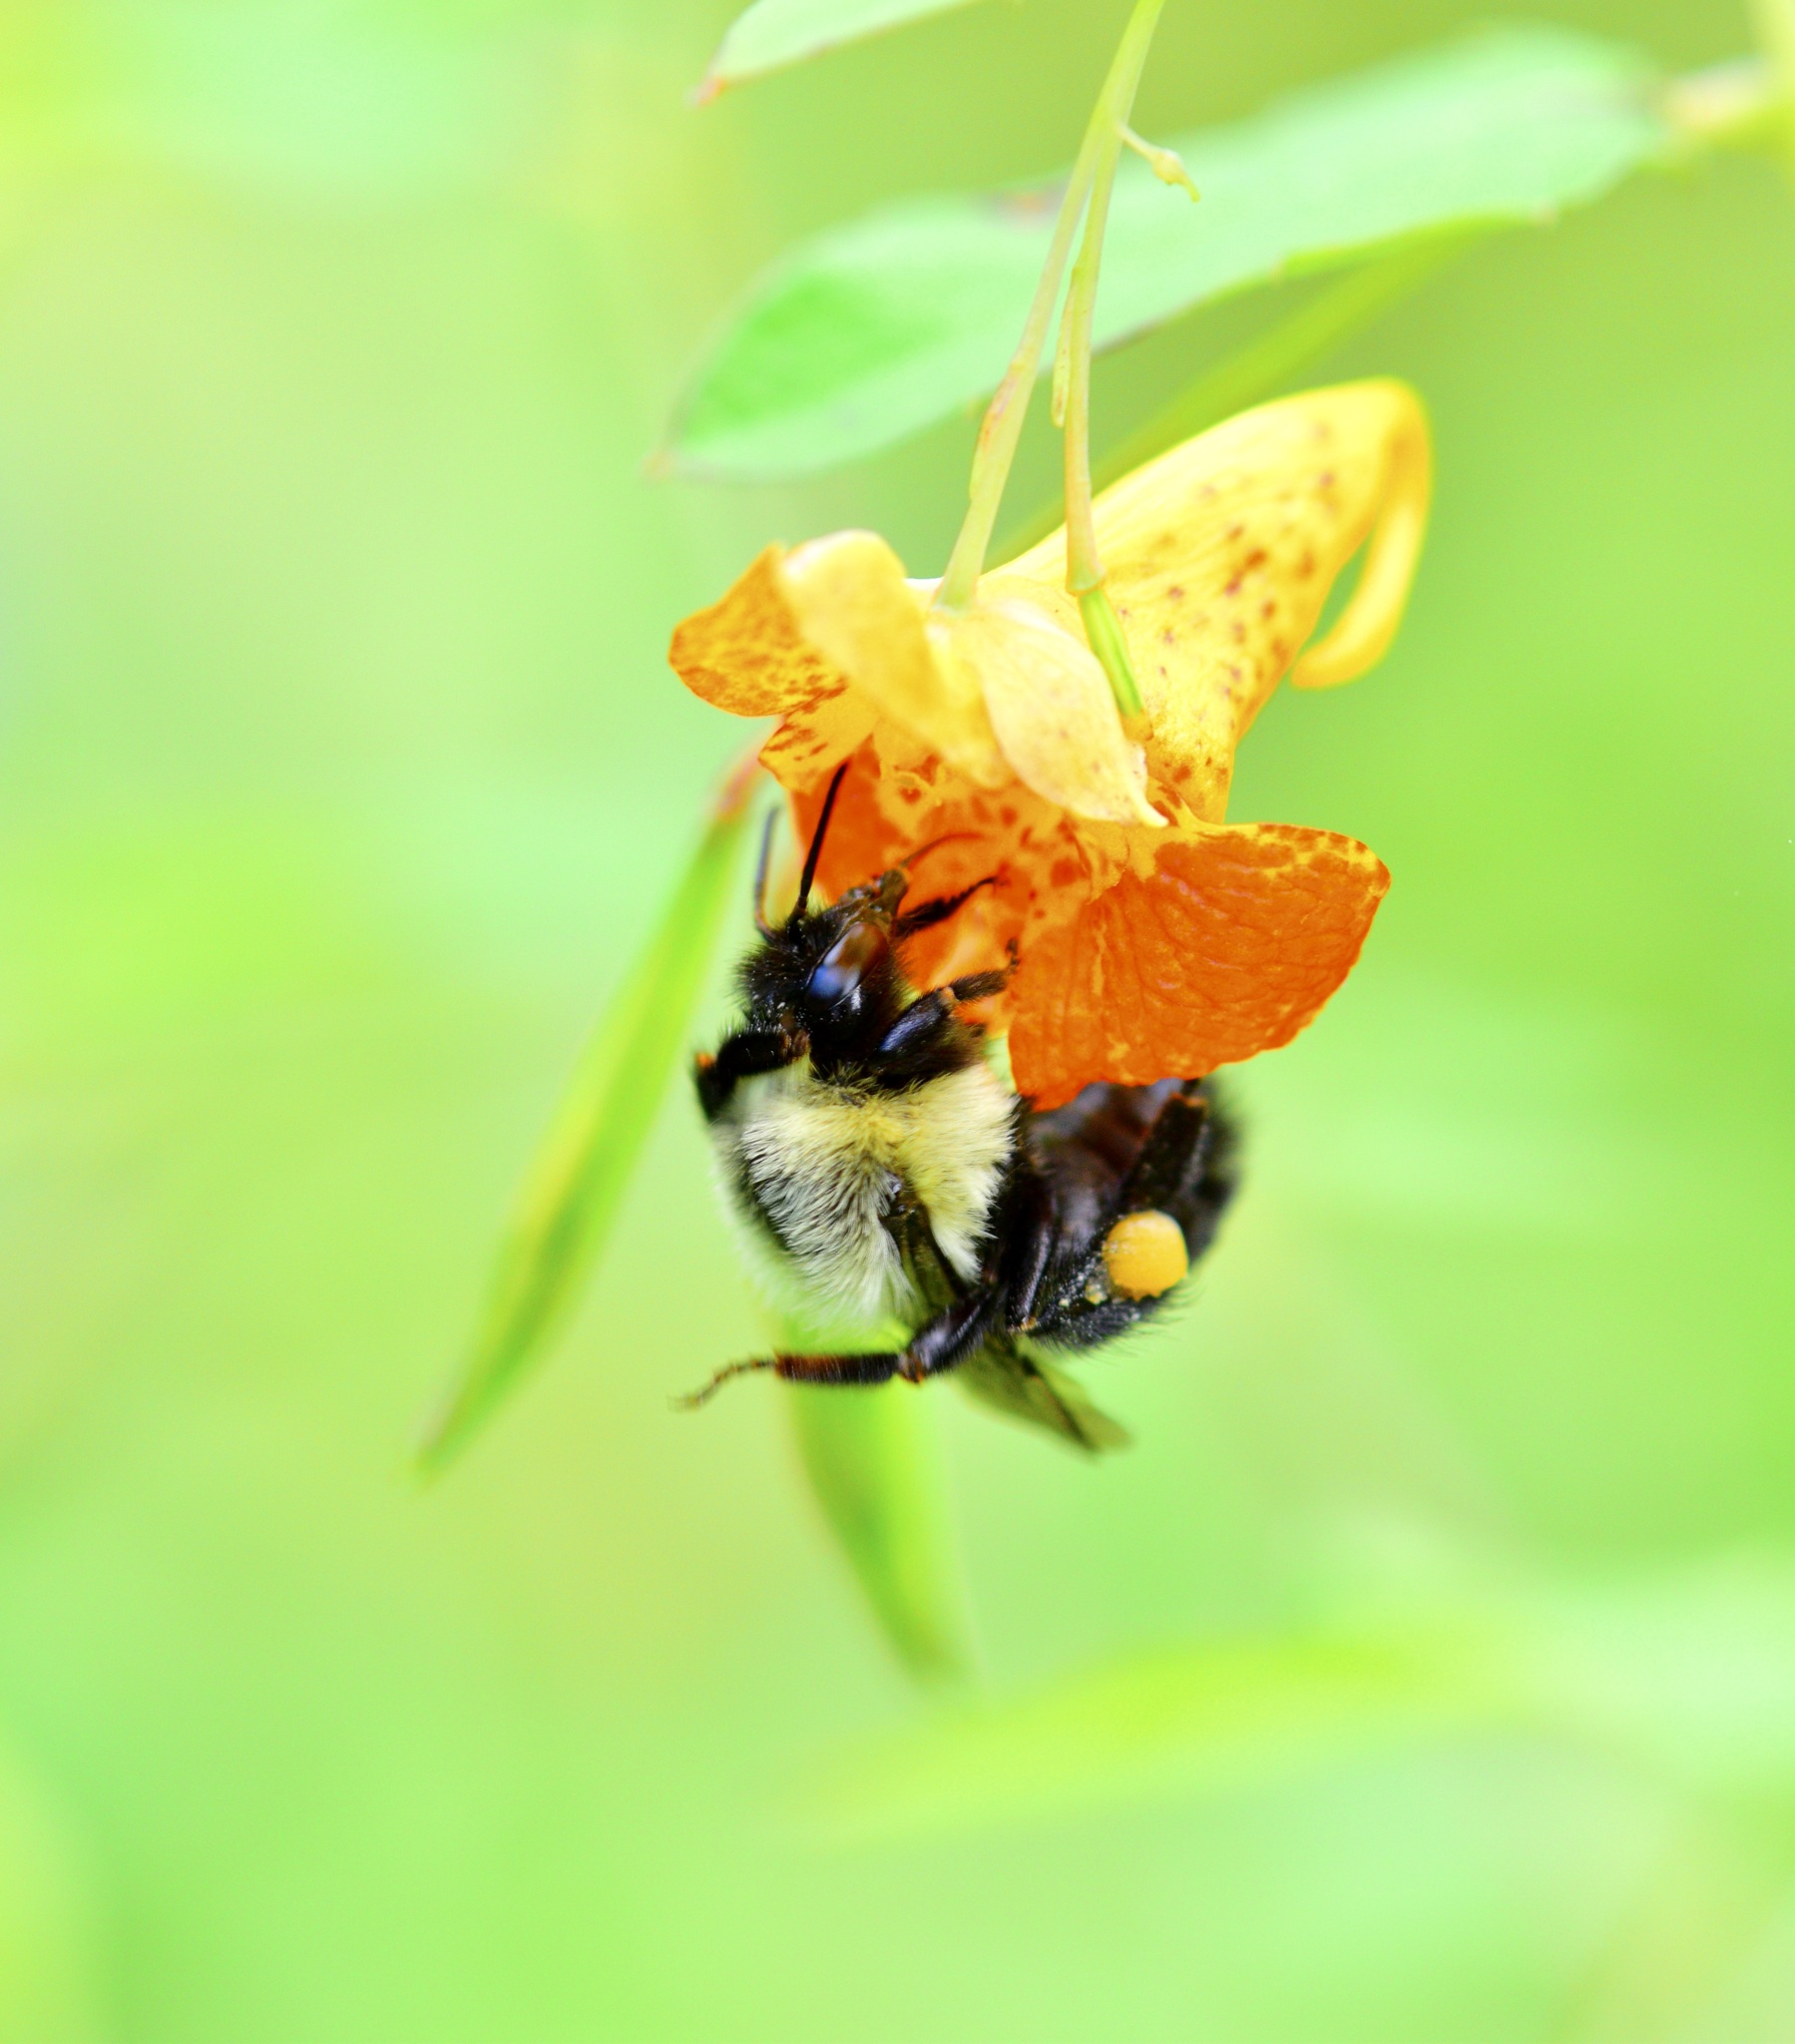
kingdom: Animalia
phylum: Arthropoda
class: Insecta
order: Hymenoptera
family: Apidae
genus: Bombus
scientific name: Bombus impatiens
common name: Common eastern bumble bee
